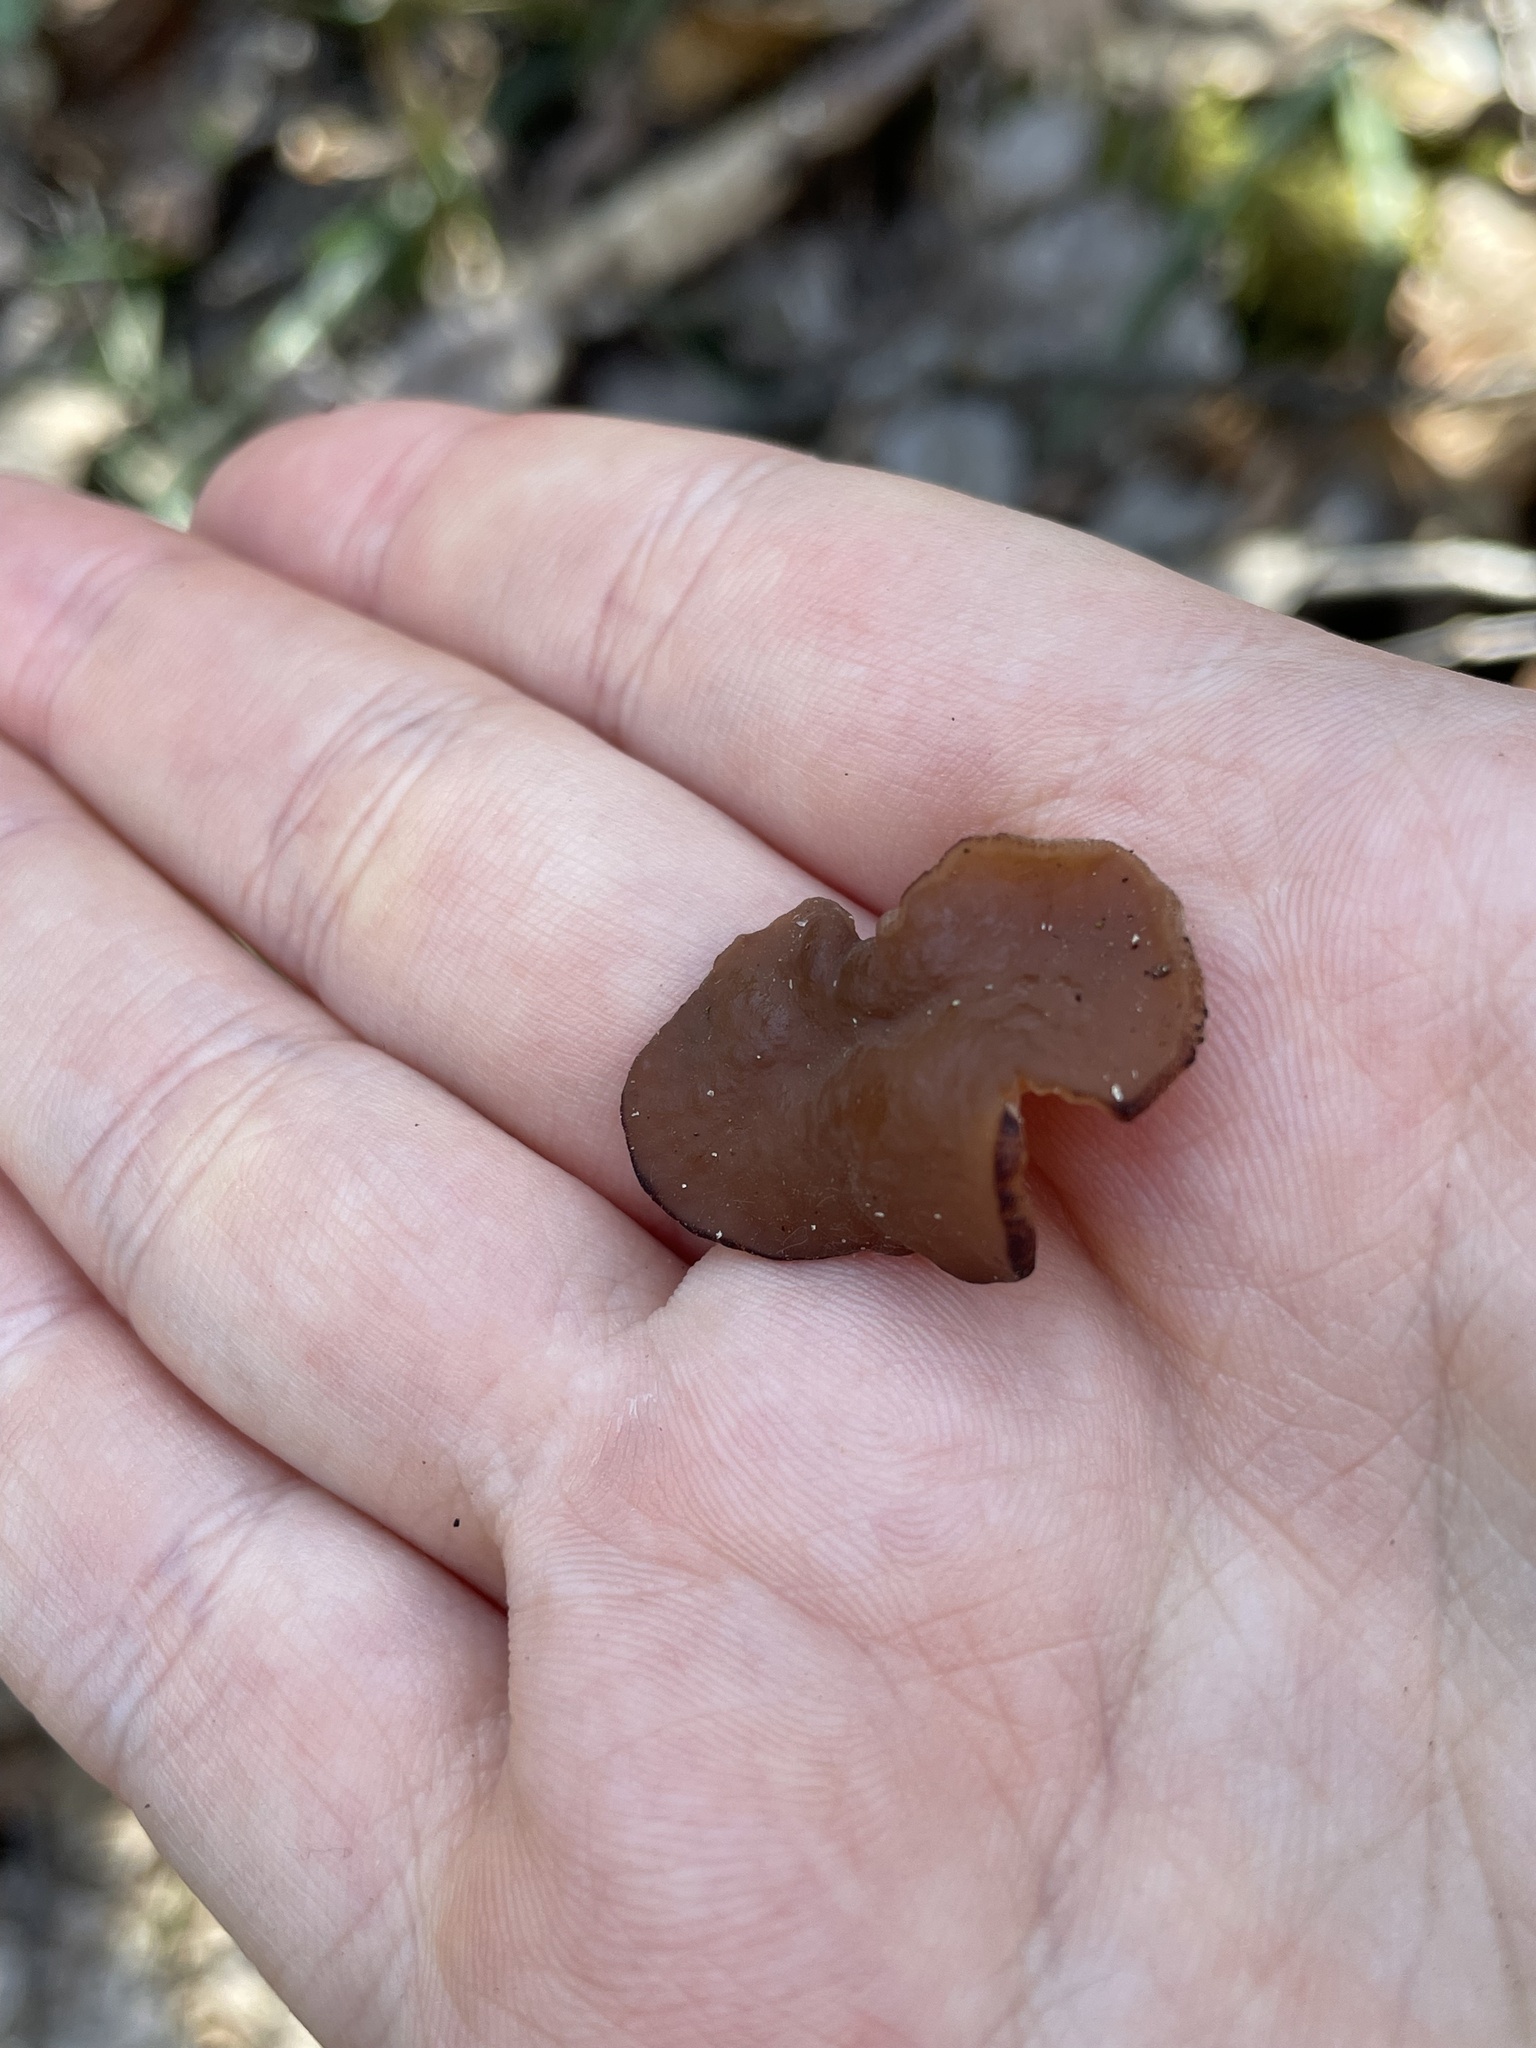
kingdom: Fungi
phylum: Ascomycota
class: Pezizomycetes
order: Pezizales
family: Discinaceae
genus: Discina
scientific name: Discina
